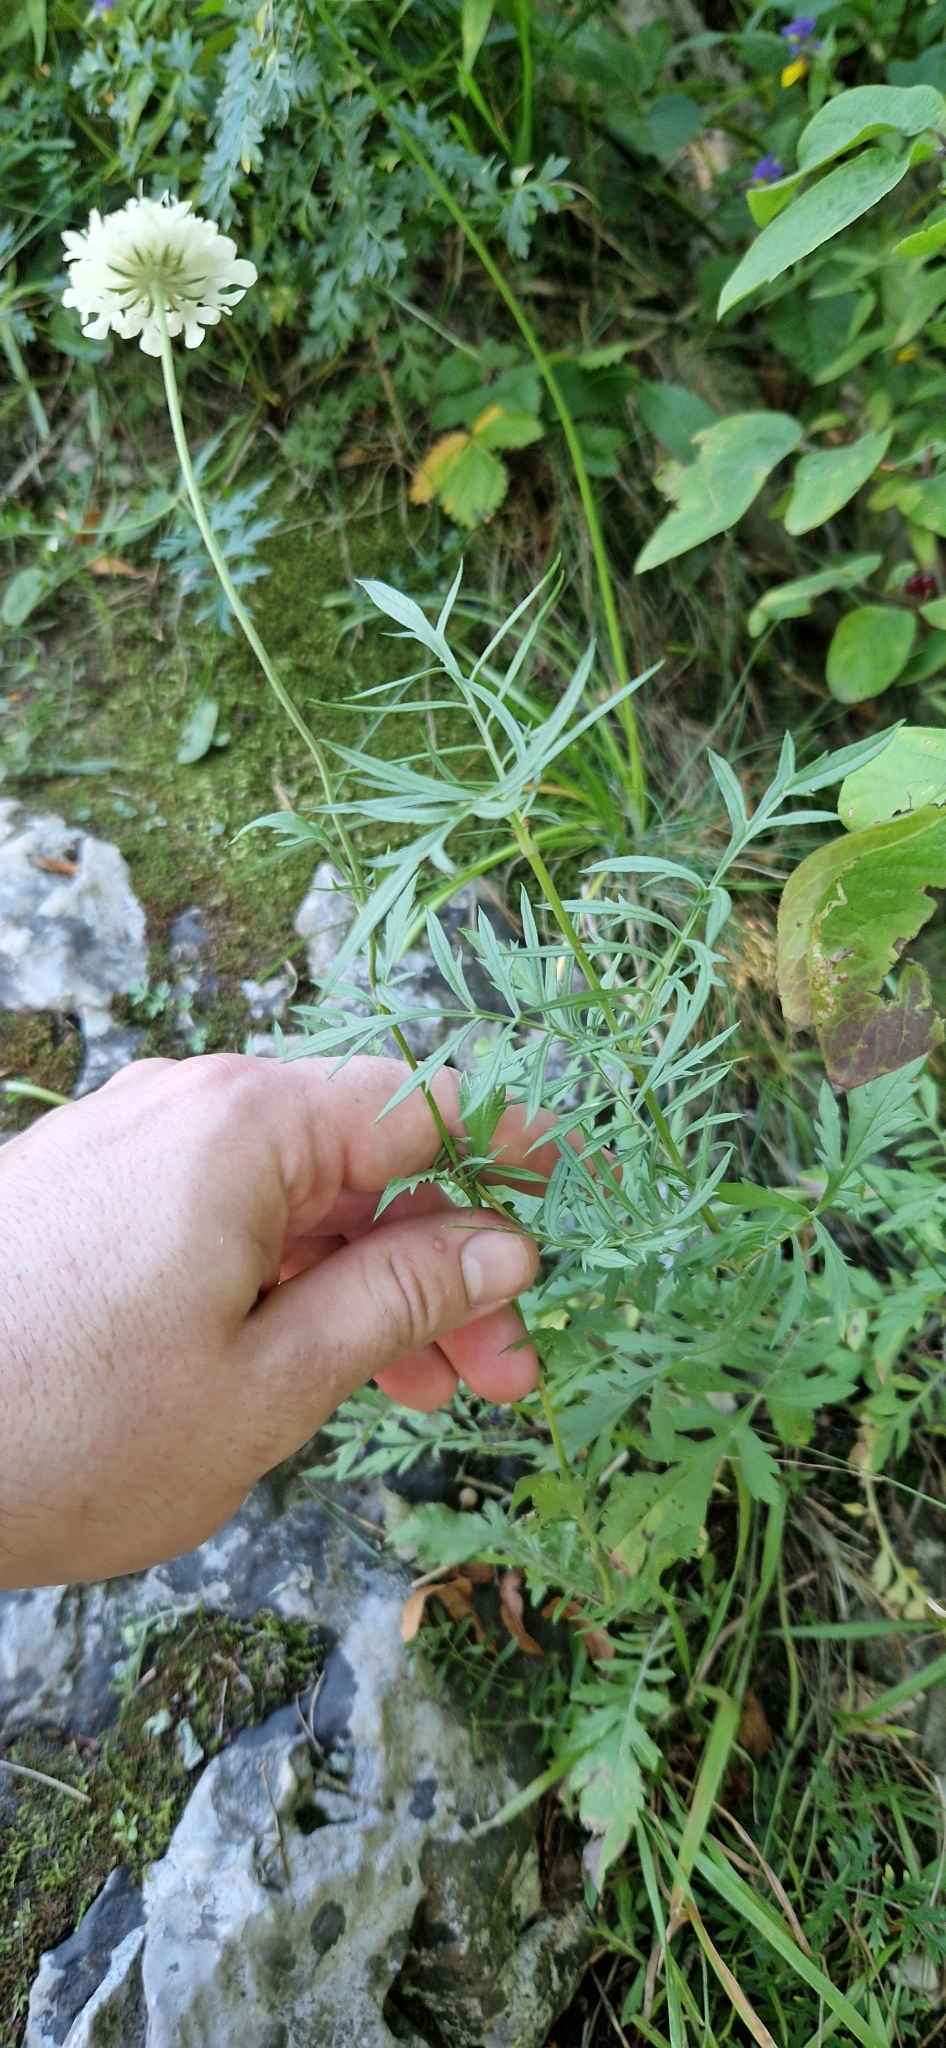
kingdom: Plantae
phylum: Tracheophyta
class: Magnoliopsida
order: Dipsacales
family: Caprifoliaceae
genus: Scabiosa
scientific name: Scabiosa ochroleuca
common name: Cream pincushions
